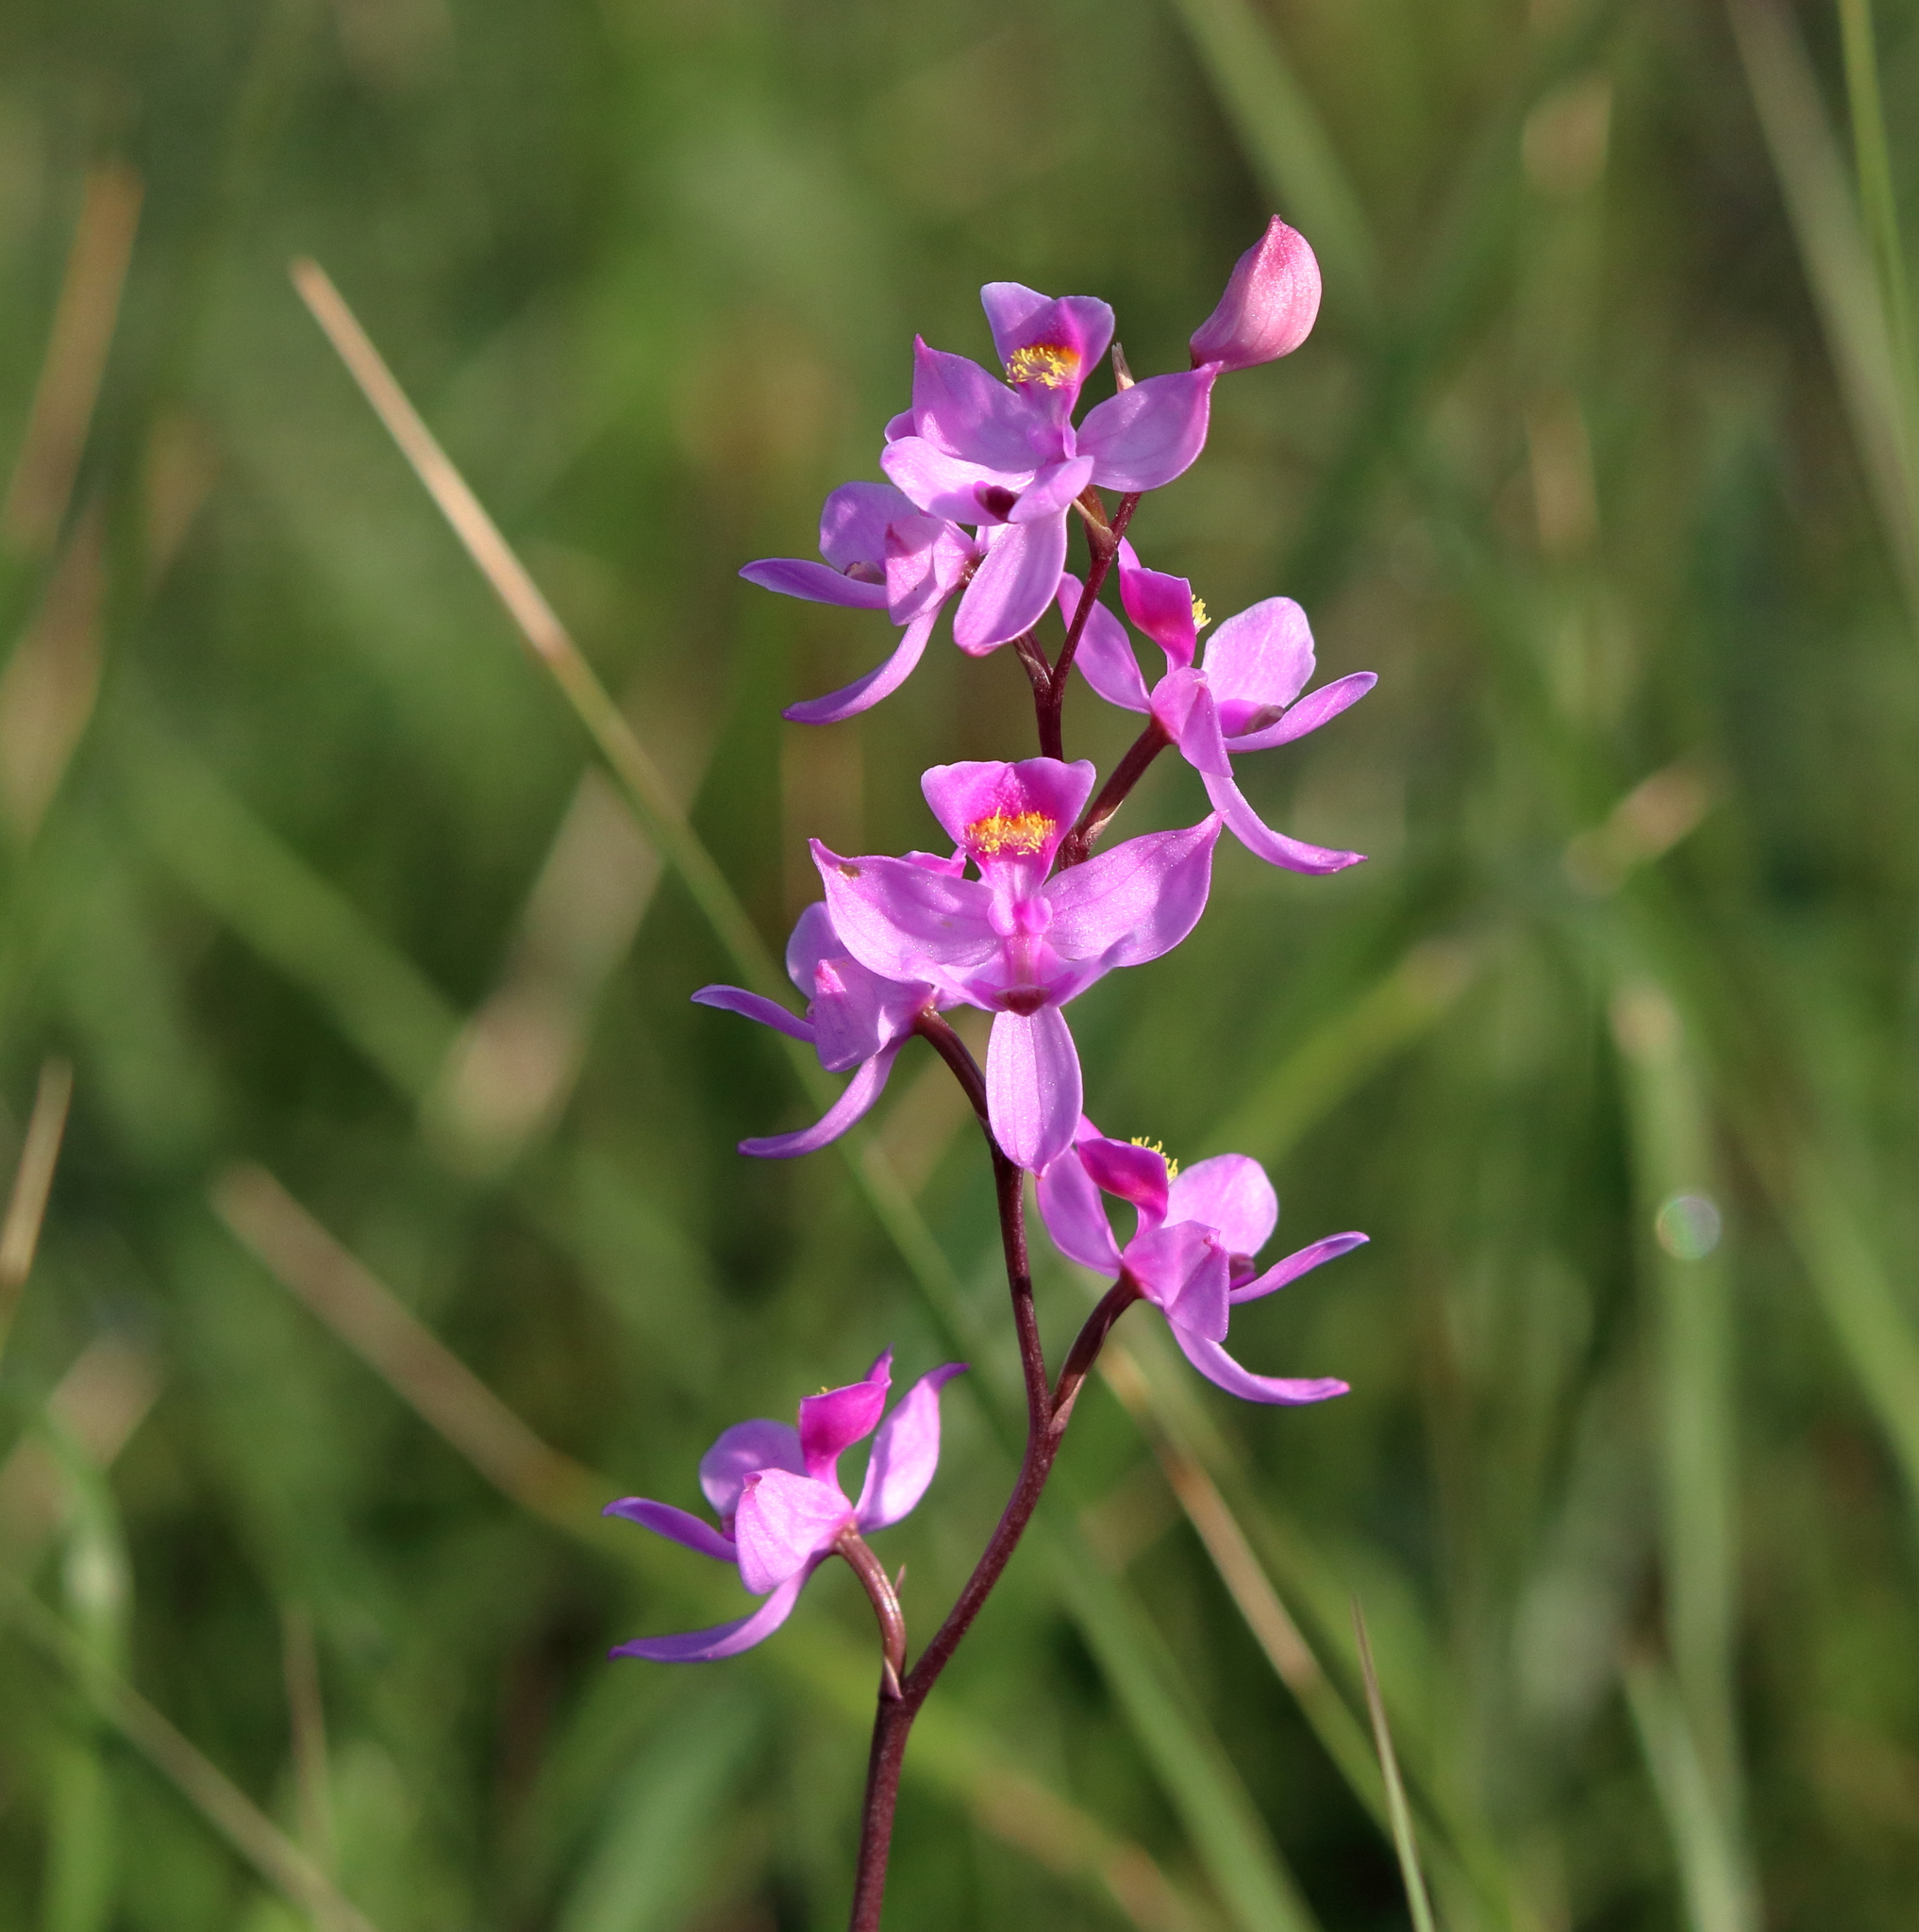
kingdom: Plantae
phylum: Tracheophyta
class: Liliopsida
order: Asparagales
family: Orchidaceae
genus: Calopogon
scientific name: Calopogon multiflorus
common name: Many-flowered grass-pink orchid
